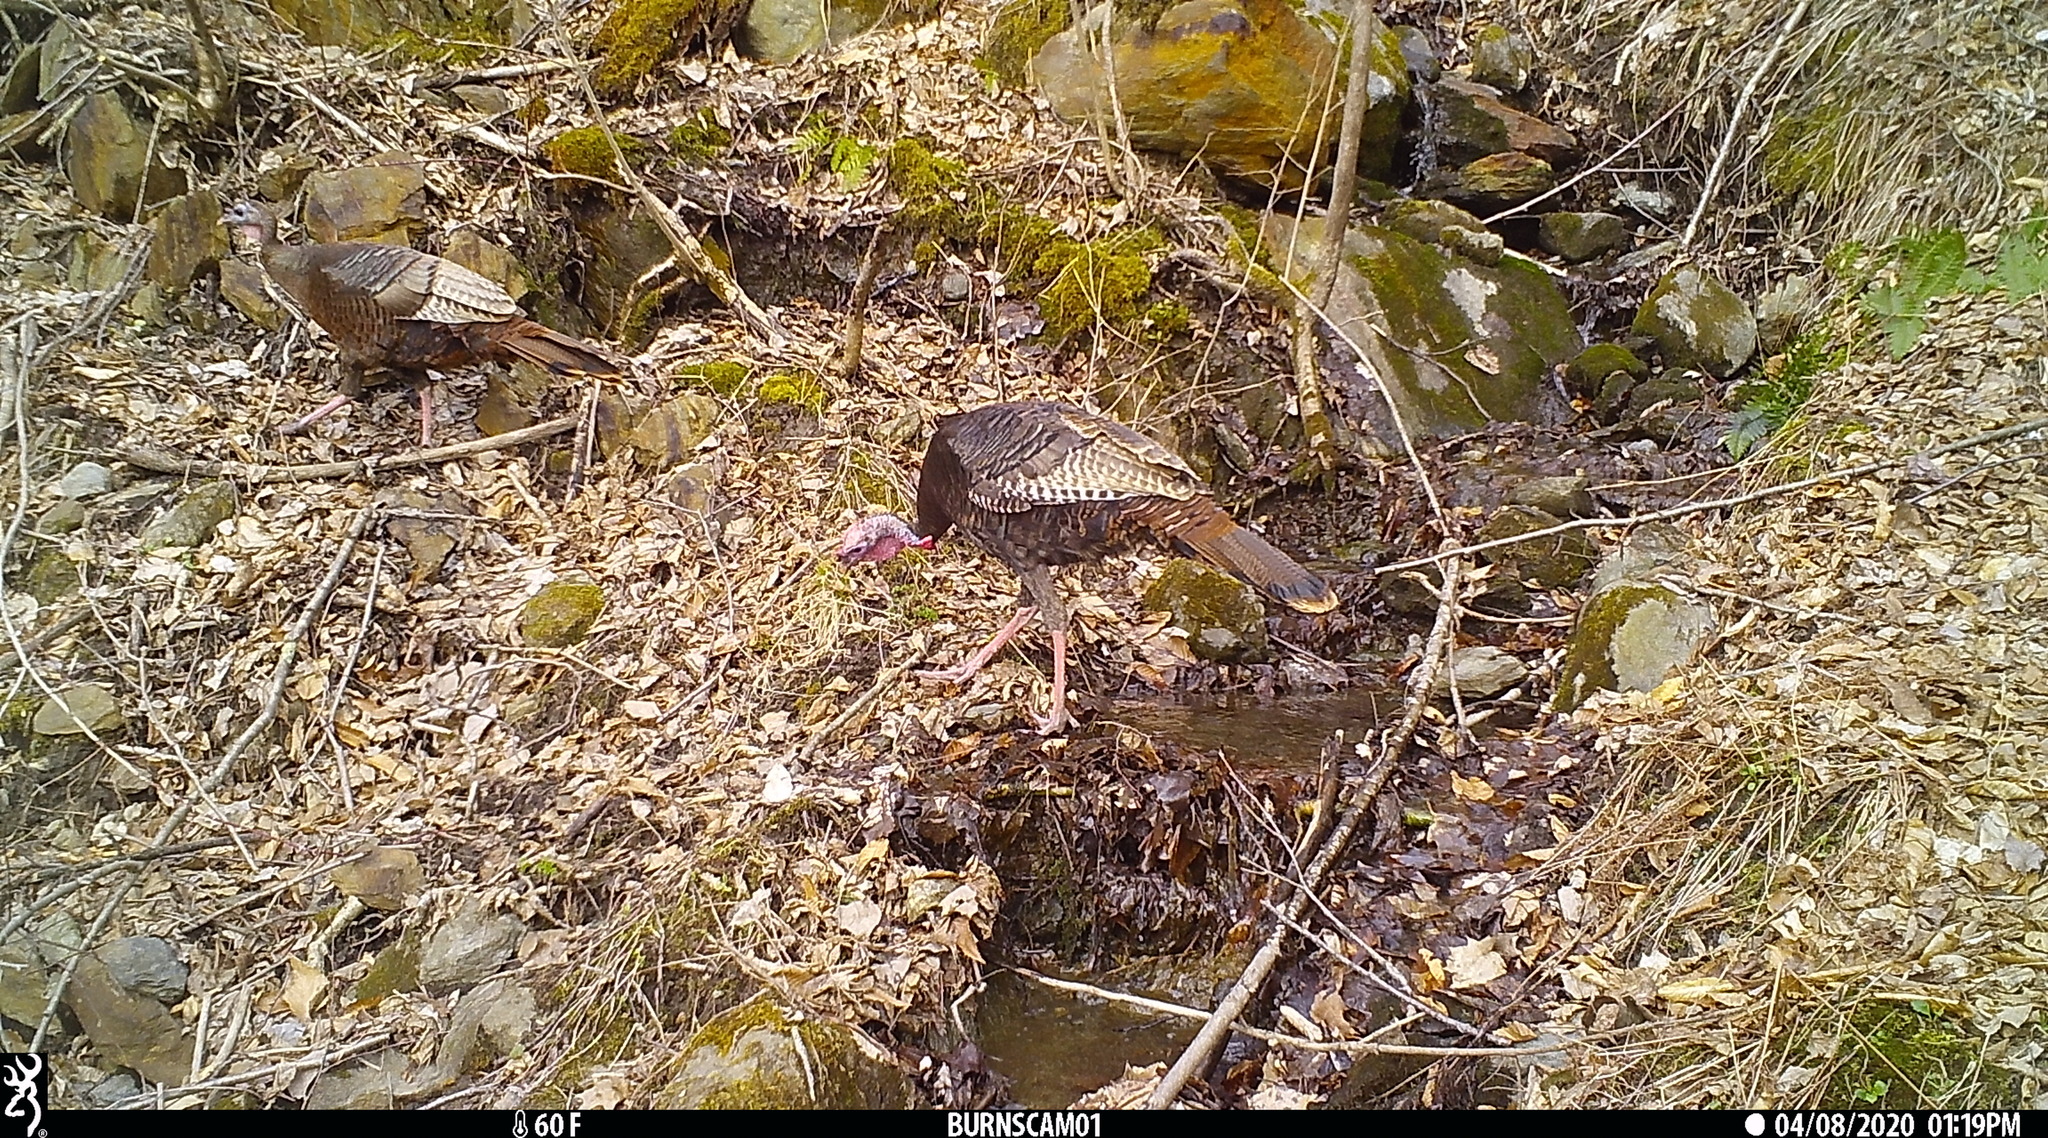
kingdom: Animalia
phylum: Chordata
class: Aves
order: Galliformes
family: Phasianidae
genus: Meleagris
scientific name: Meleagris gallopavo
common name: Wild turkey
